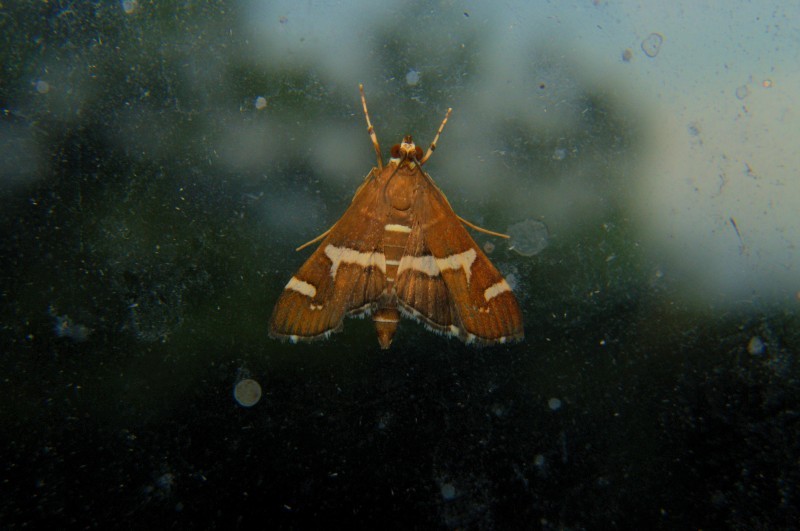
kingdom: Animalia
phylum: Arthropoda
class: Insecta
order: Lepidoptera
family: Crambidae
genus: Spoladea
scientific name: Spoladea recurvalis
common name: Beet webworm moth
